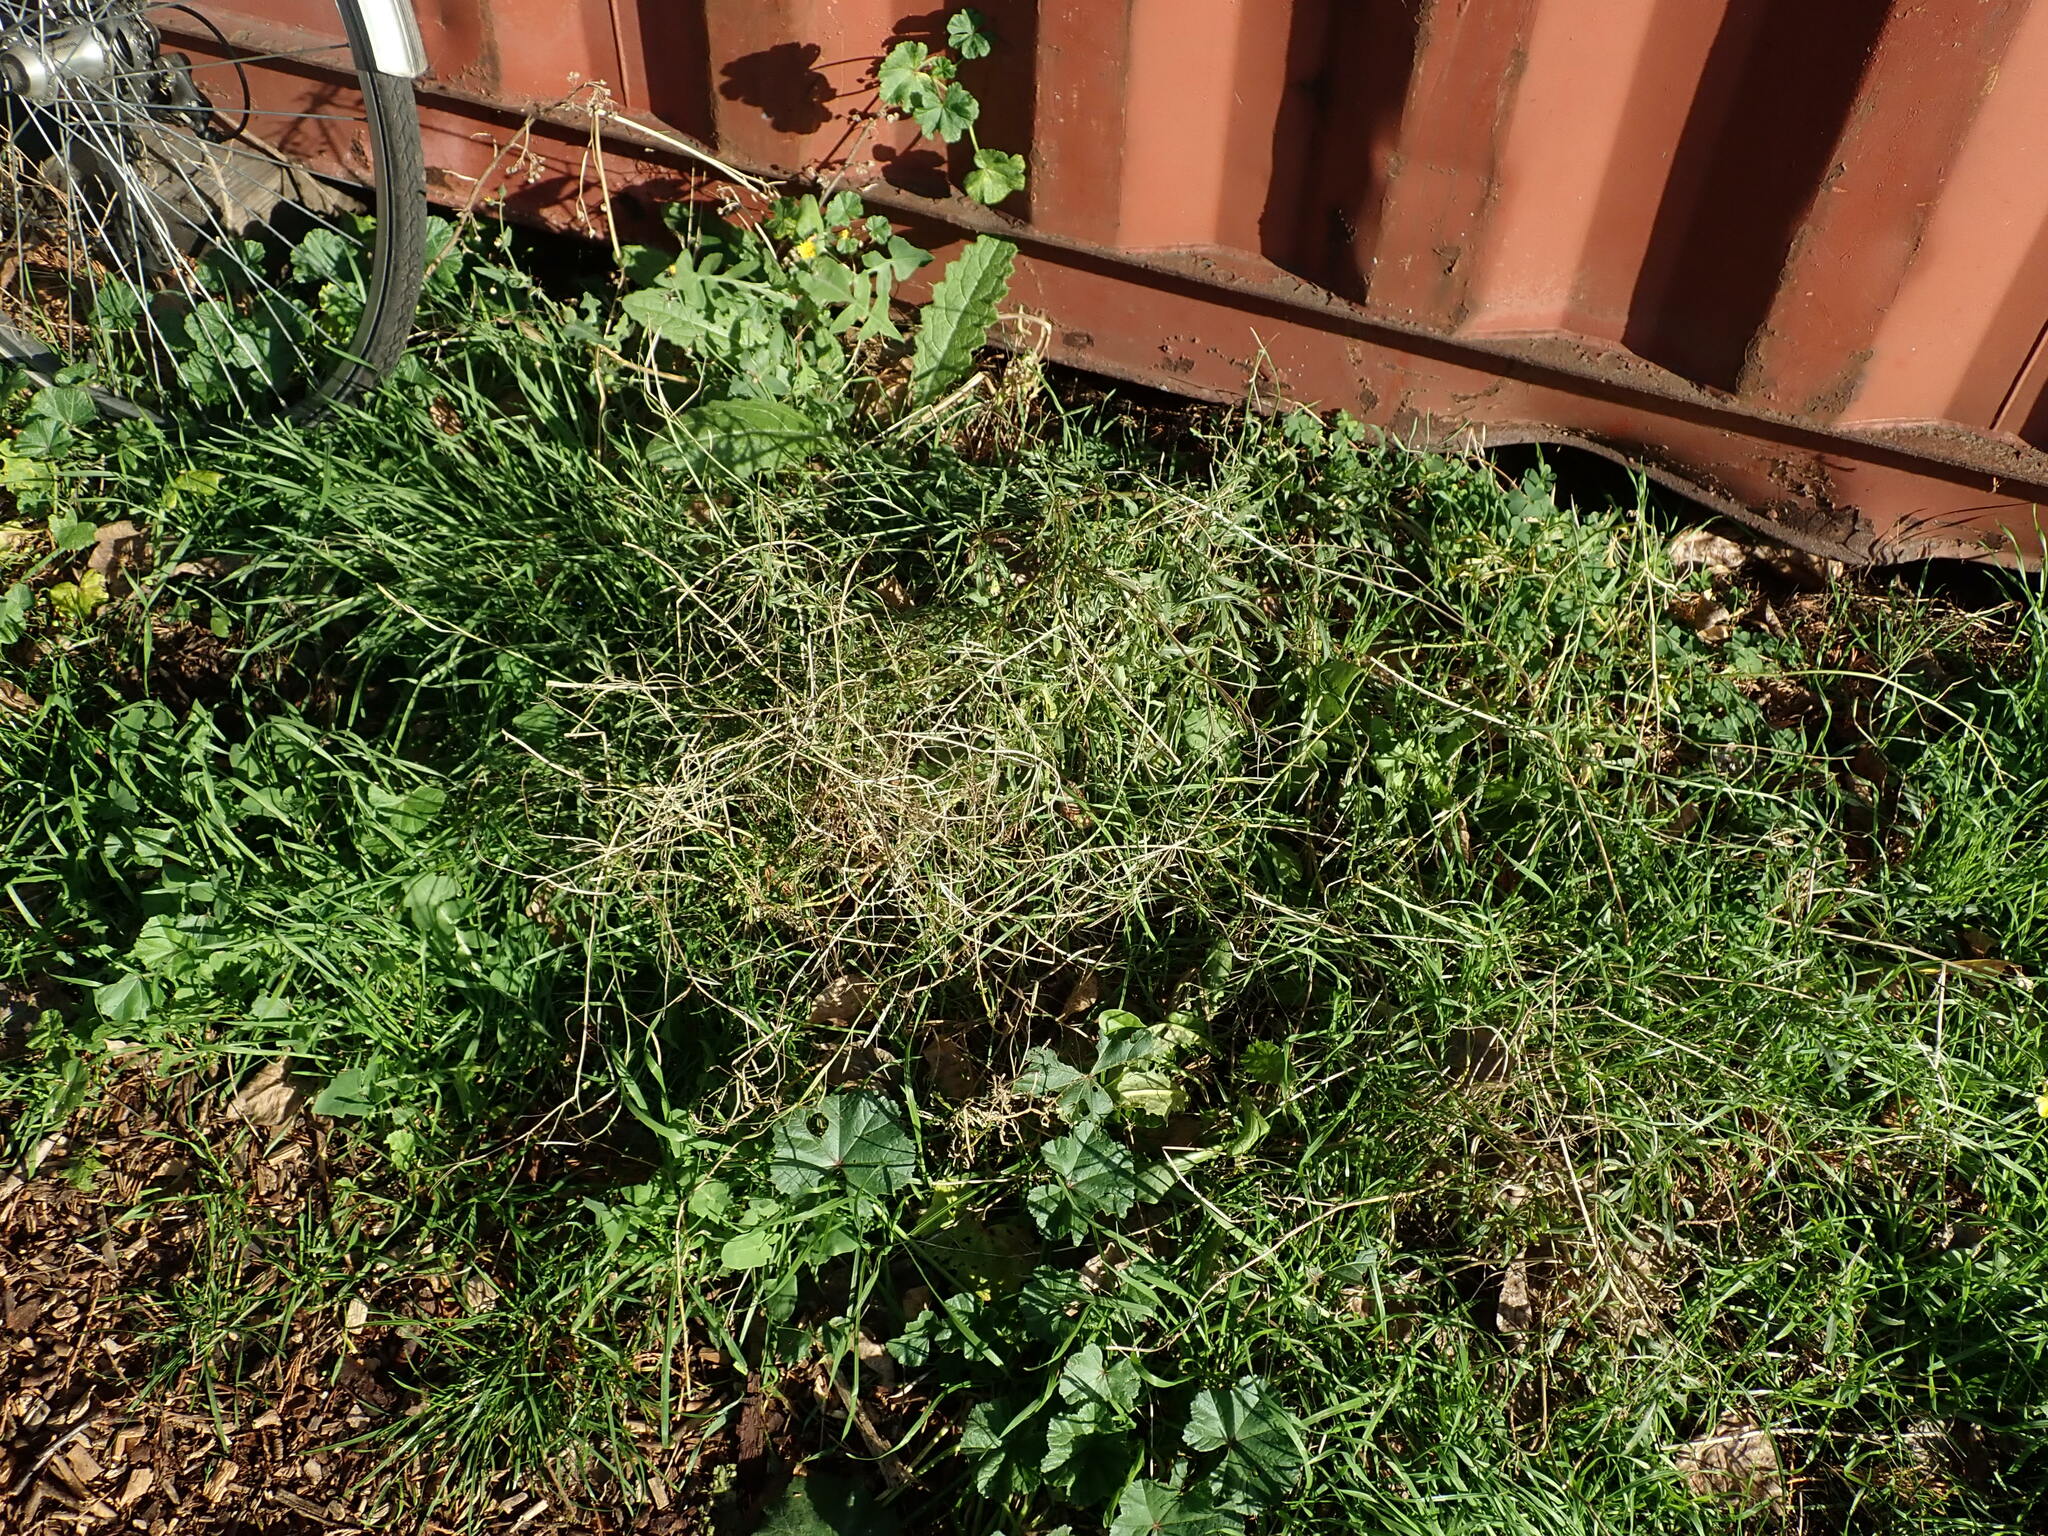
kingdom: Plantae
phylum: Tracheophyta
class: Magnoliopsida
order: Brassicales
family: Brassicaceae
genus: Diplotaxis
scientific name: Diplotaxis tenuifolia
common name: Perennial wall-rocket
